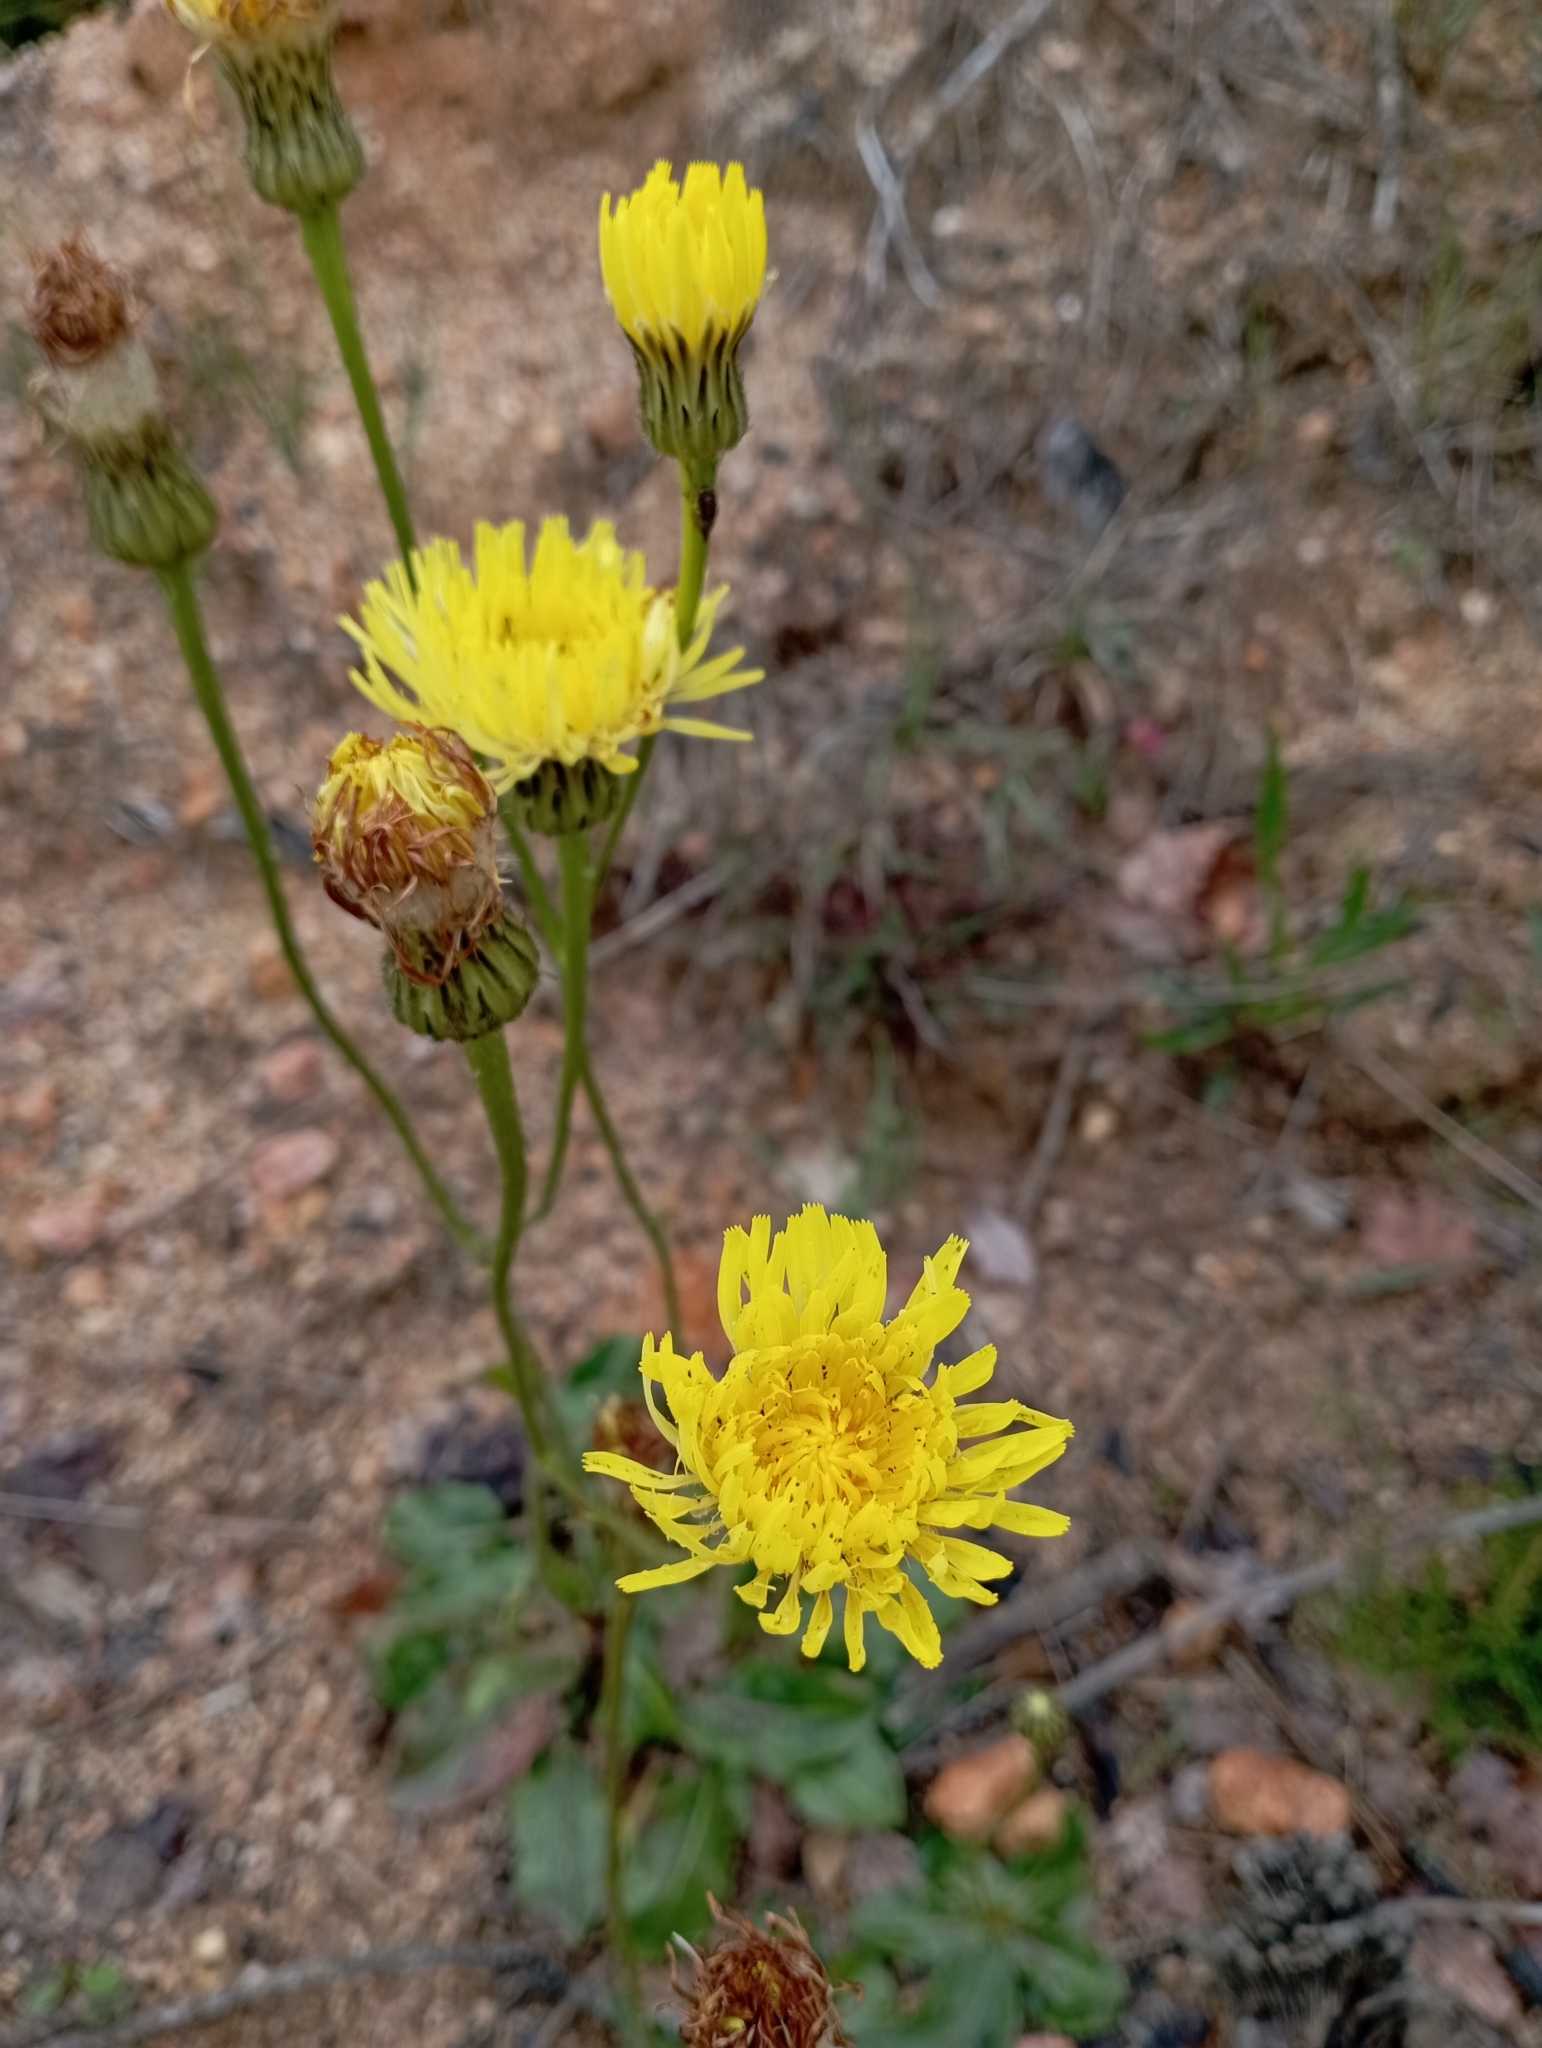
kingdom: Plantae
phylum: Tracheophyta
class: Magnoliopsida
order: Asterales
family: Asteraceae
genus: Trommsdorffia
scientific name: Trommsdorffia maculata
